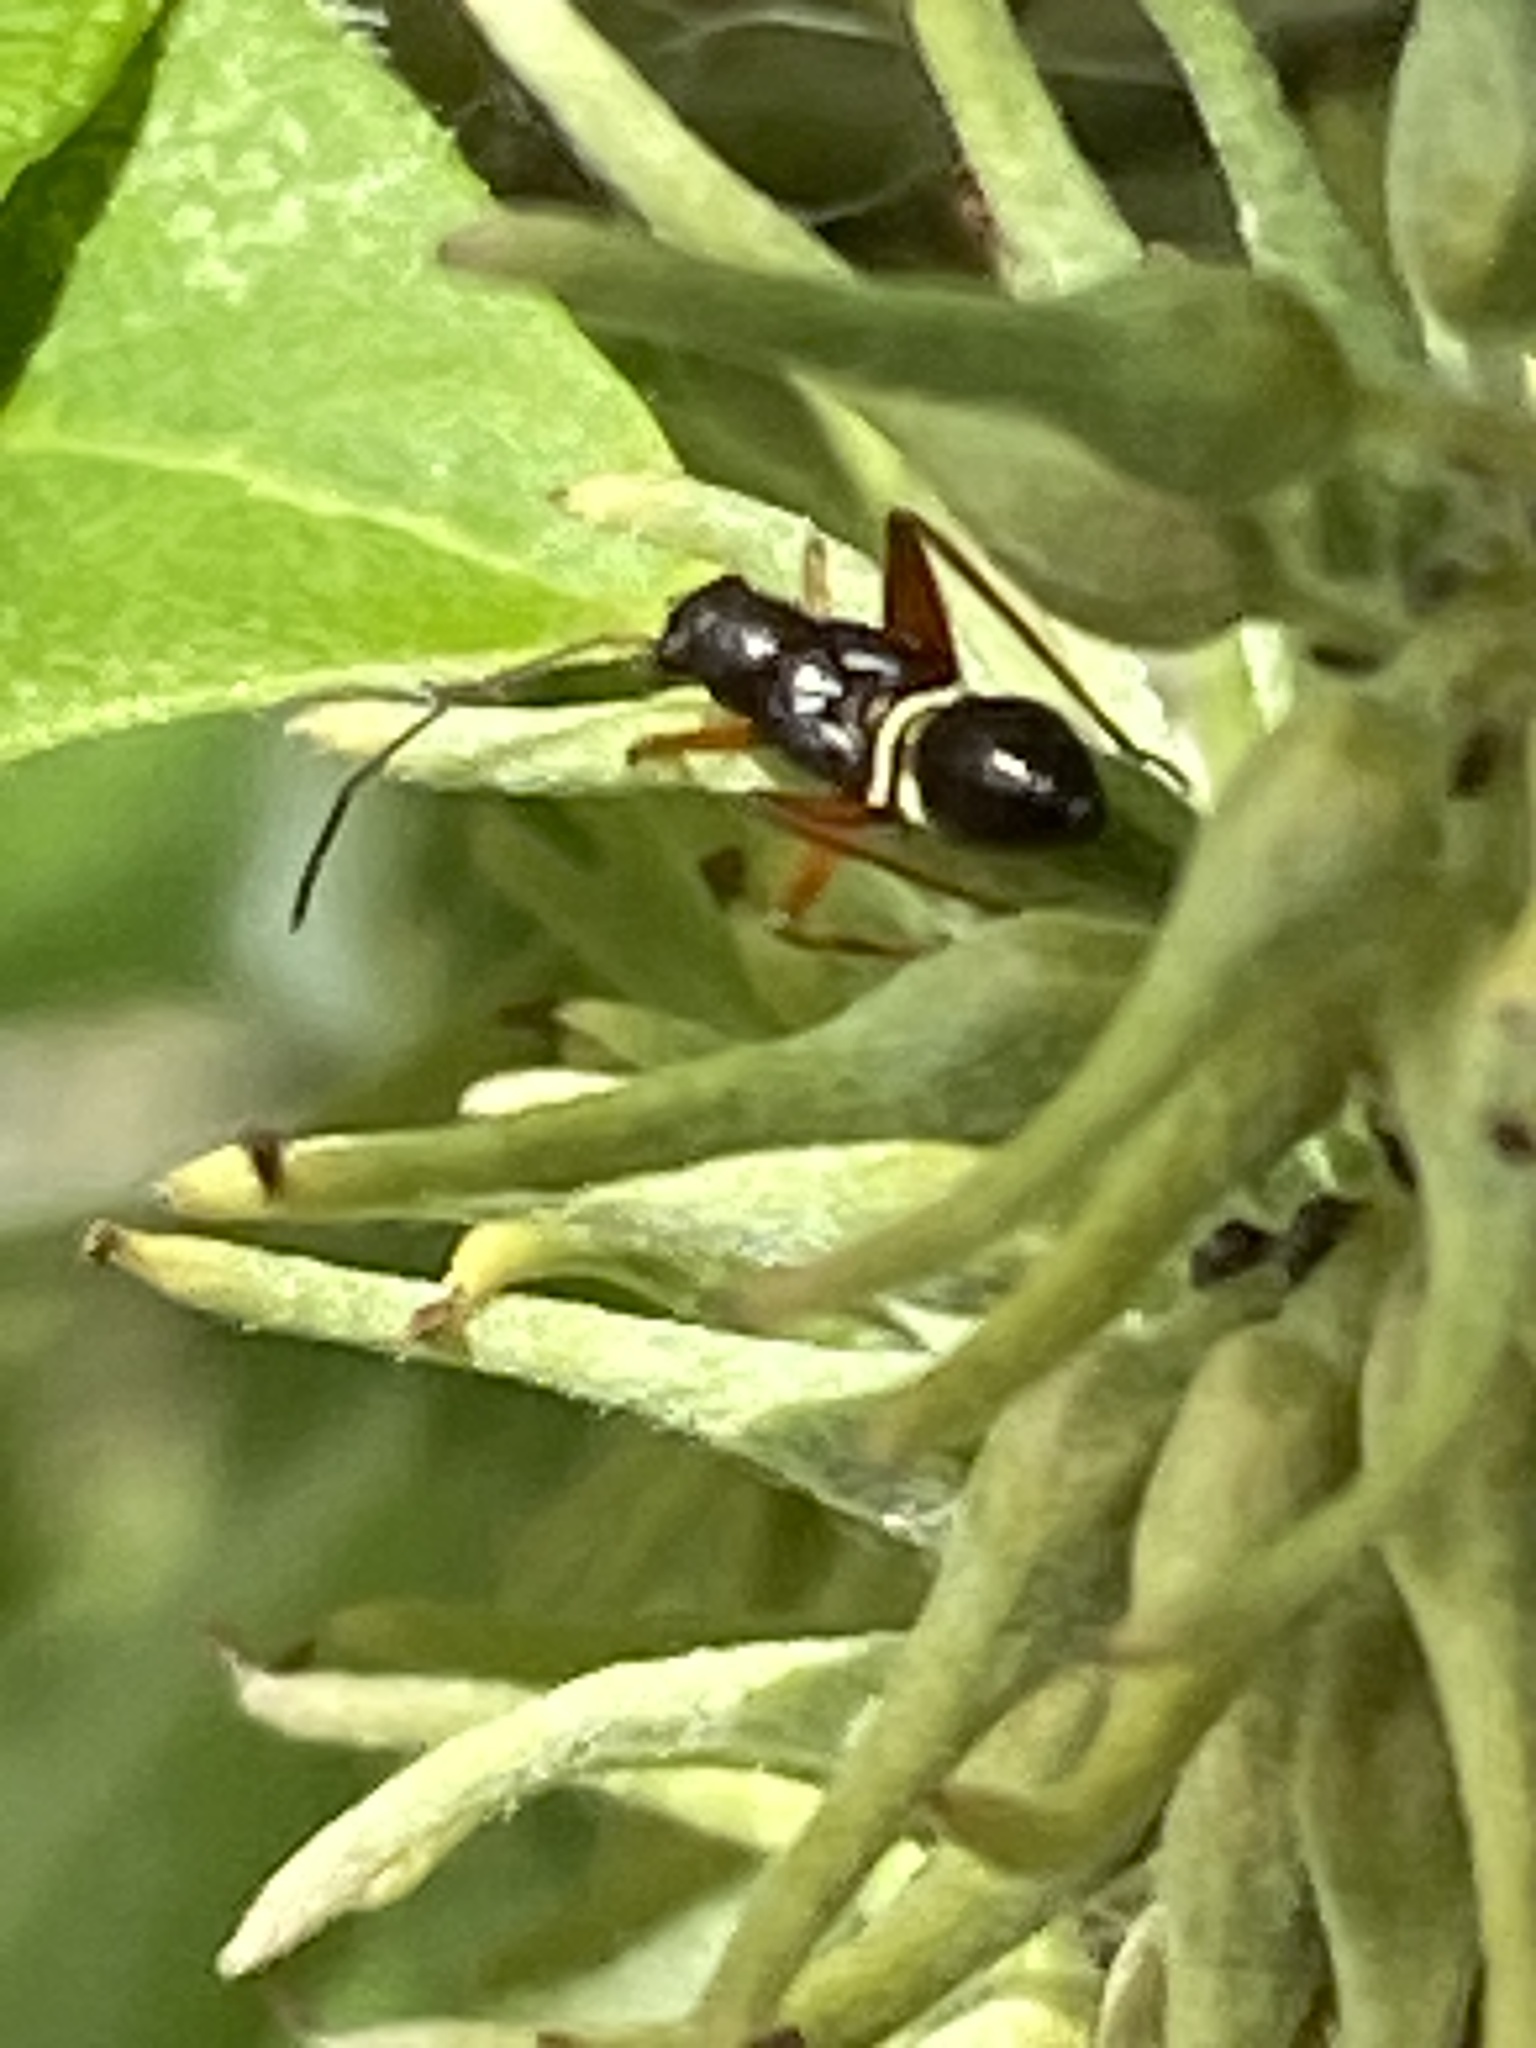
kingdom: Animalia
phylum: Arthropoda
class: Insecta
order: Hemiptera
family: Miridae
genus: Miris
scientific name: Miris striatus
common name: Fine streaked bugkin
